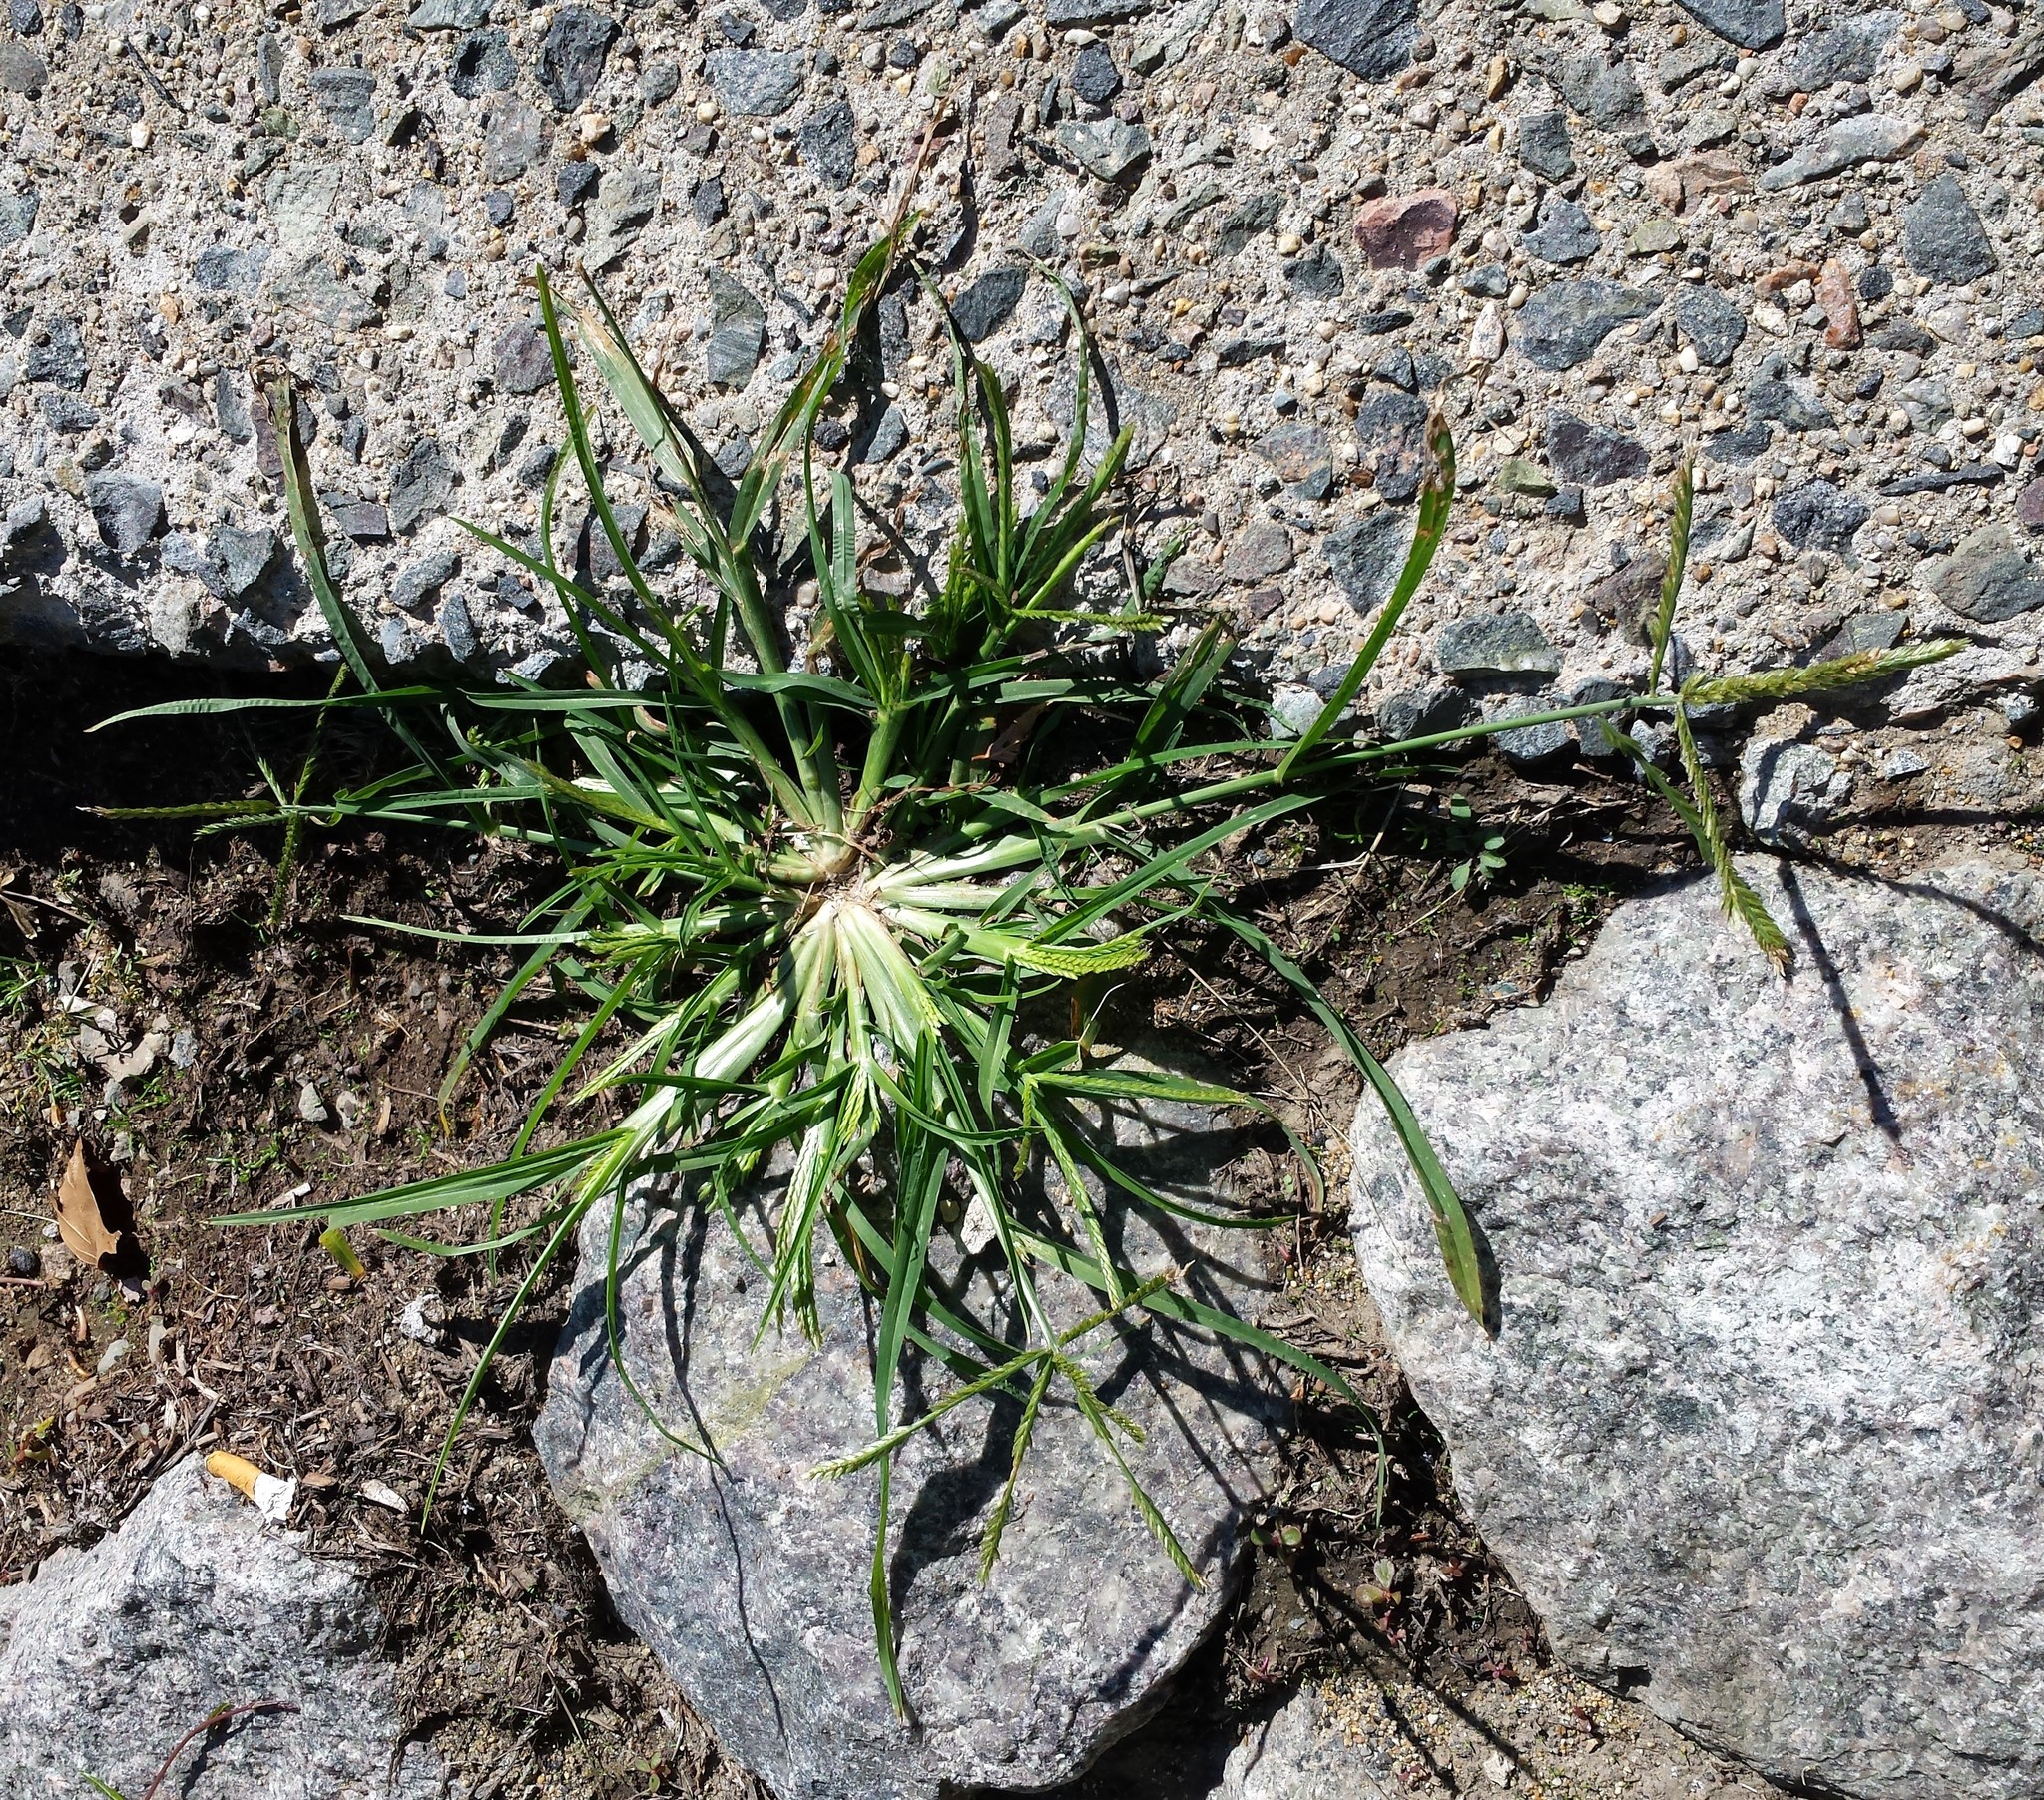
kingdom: Plantae
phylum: Tracheophyta
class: Liliopsida
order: Poales
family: Poaceae
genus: Eleusine
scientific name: Eleusine indica
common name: Yard-grass
